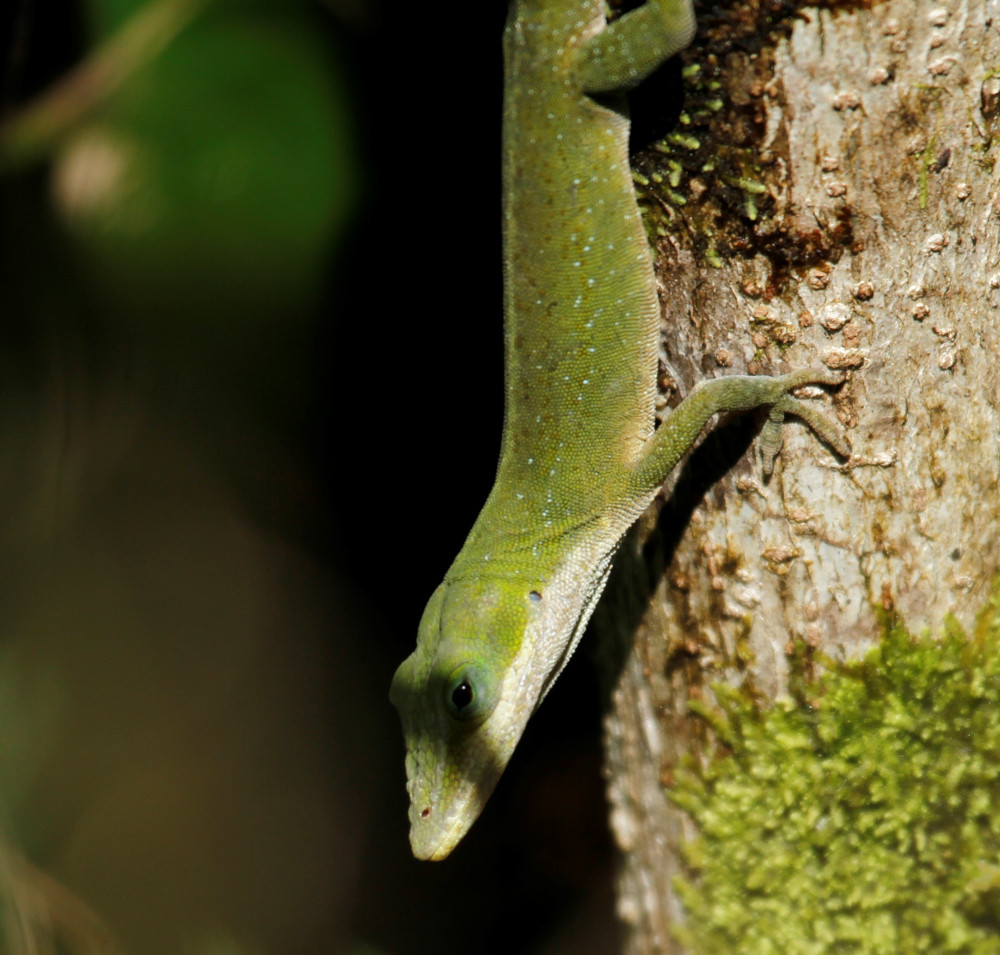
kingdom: Animalia
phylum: Chordata
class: Squamata
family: Dactyloidae
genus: Anolis
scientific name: Anolis carolinensis
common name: Green anole
